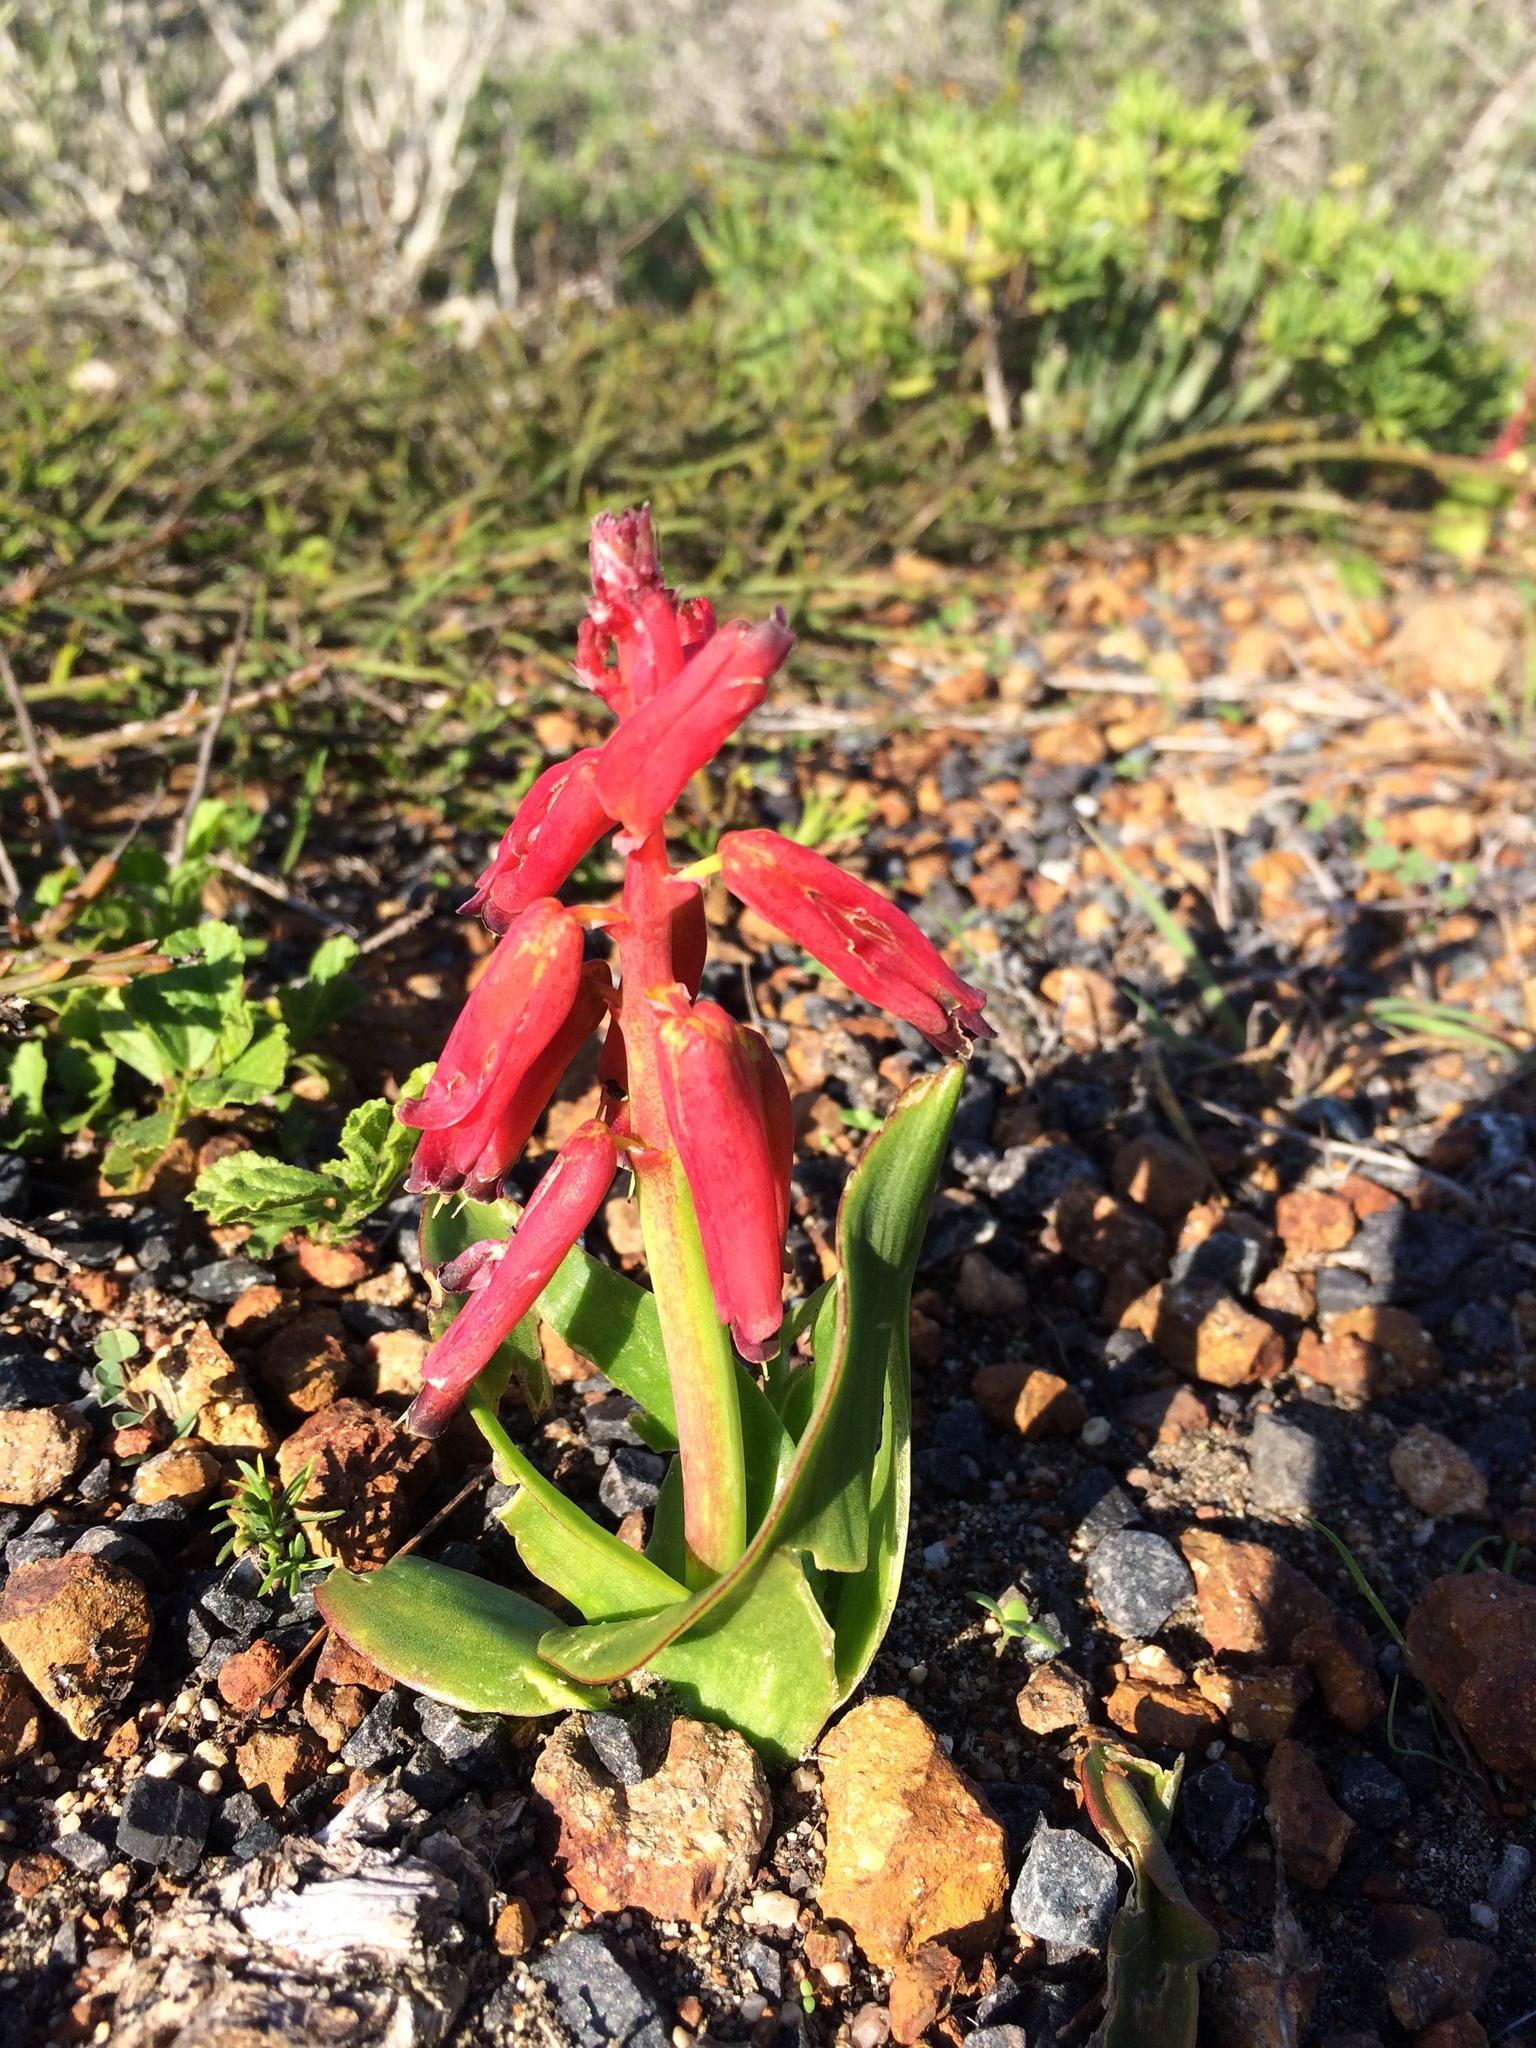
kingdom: Plantae
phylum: Tracheophyta
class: Liliopsida
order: Asparagales
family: Asparagaceae
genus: Lachenalia
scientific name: Lachenalia bulbifera
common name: Red lachenalia
